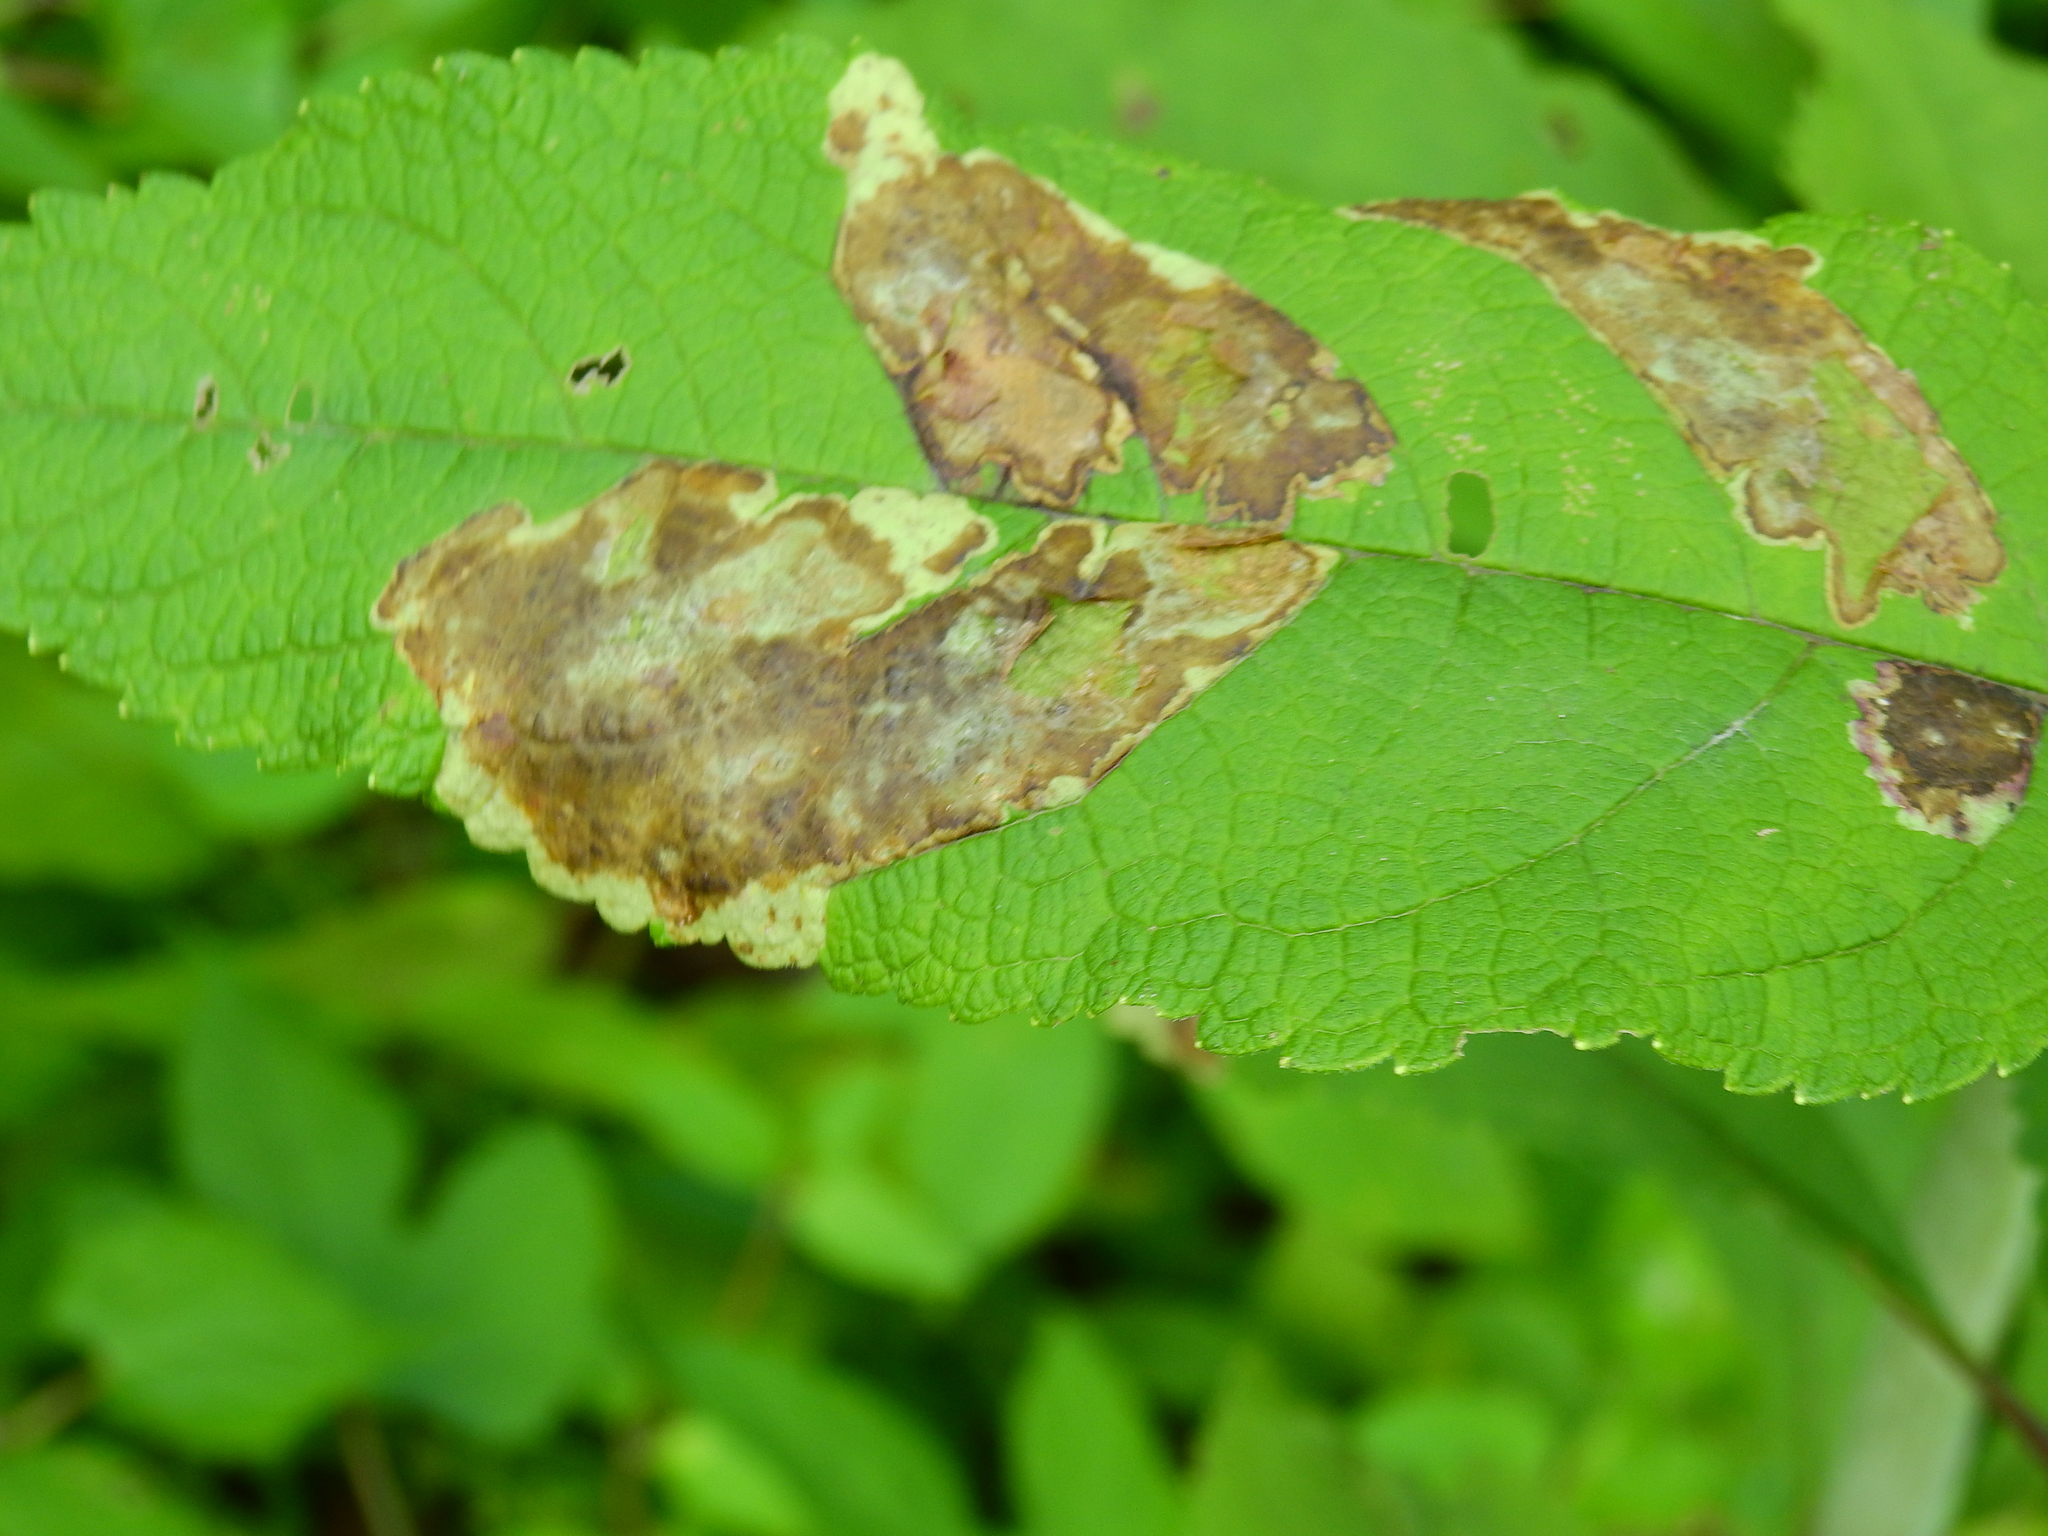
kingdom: Animalia
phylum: Arthropoda
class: Insecta
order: Diptera
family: Agromyzidae
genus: Calycomyza
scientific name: Calycomyza flavinotum
